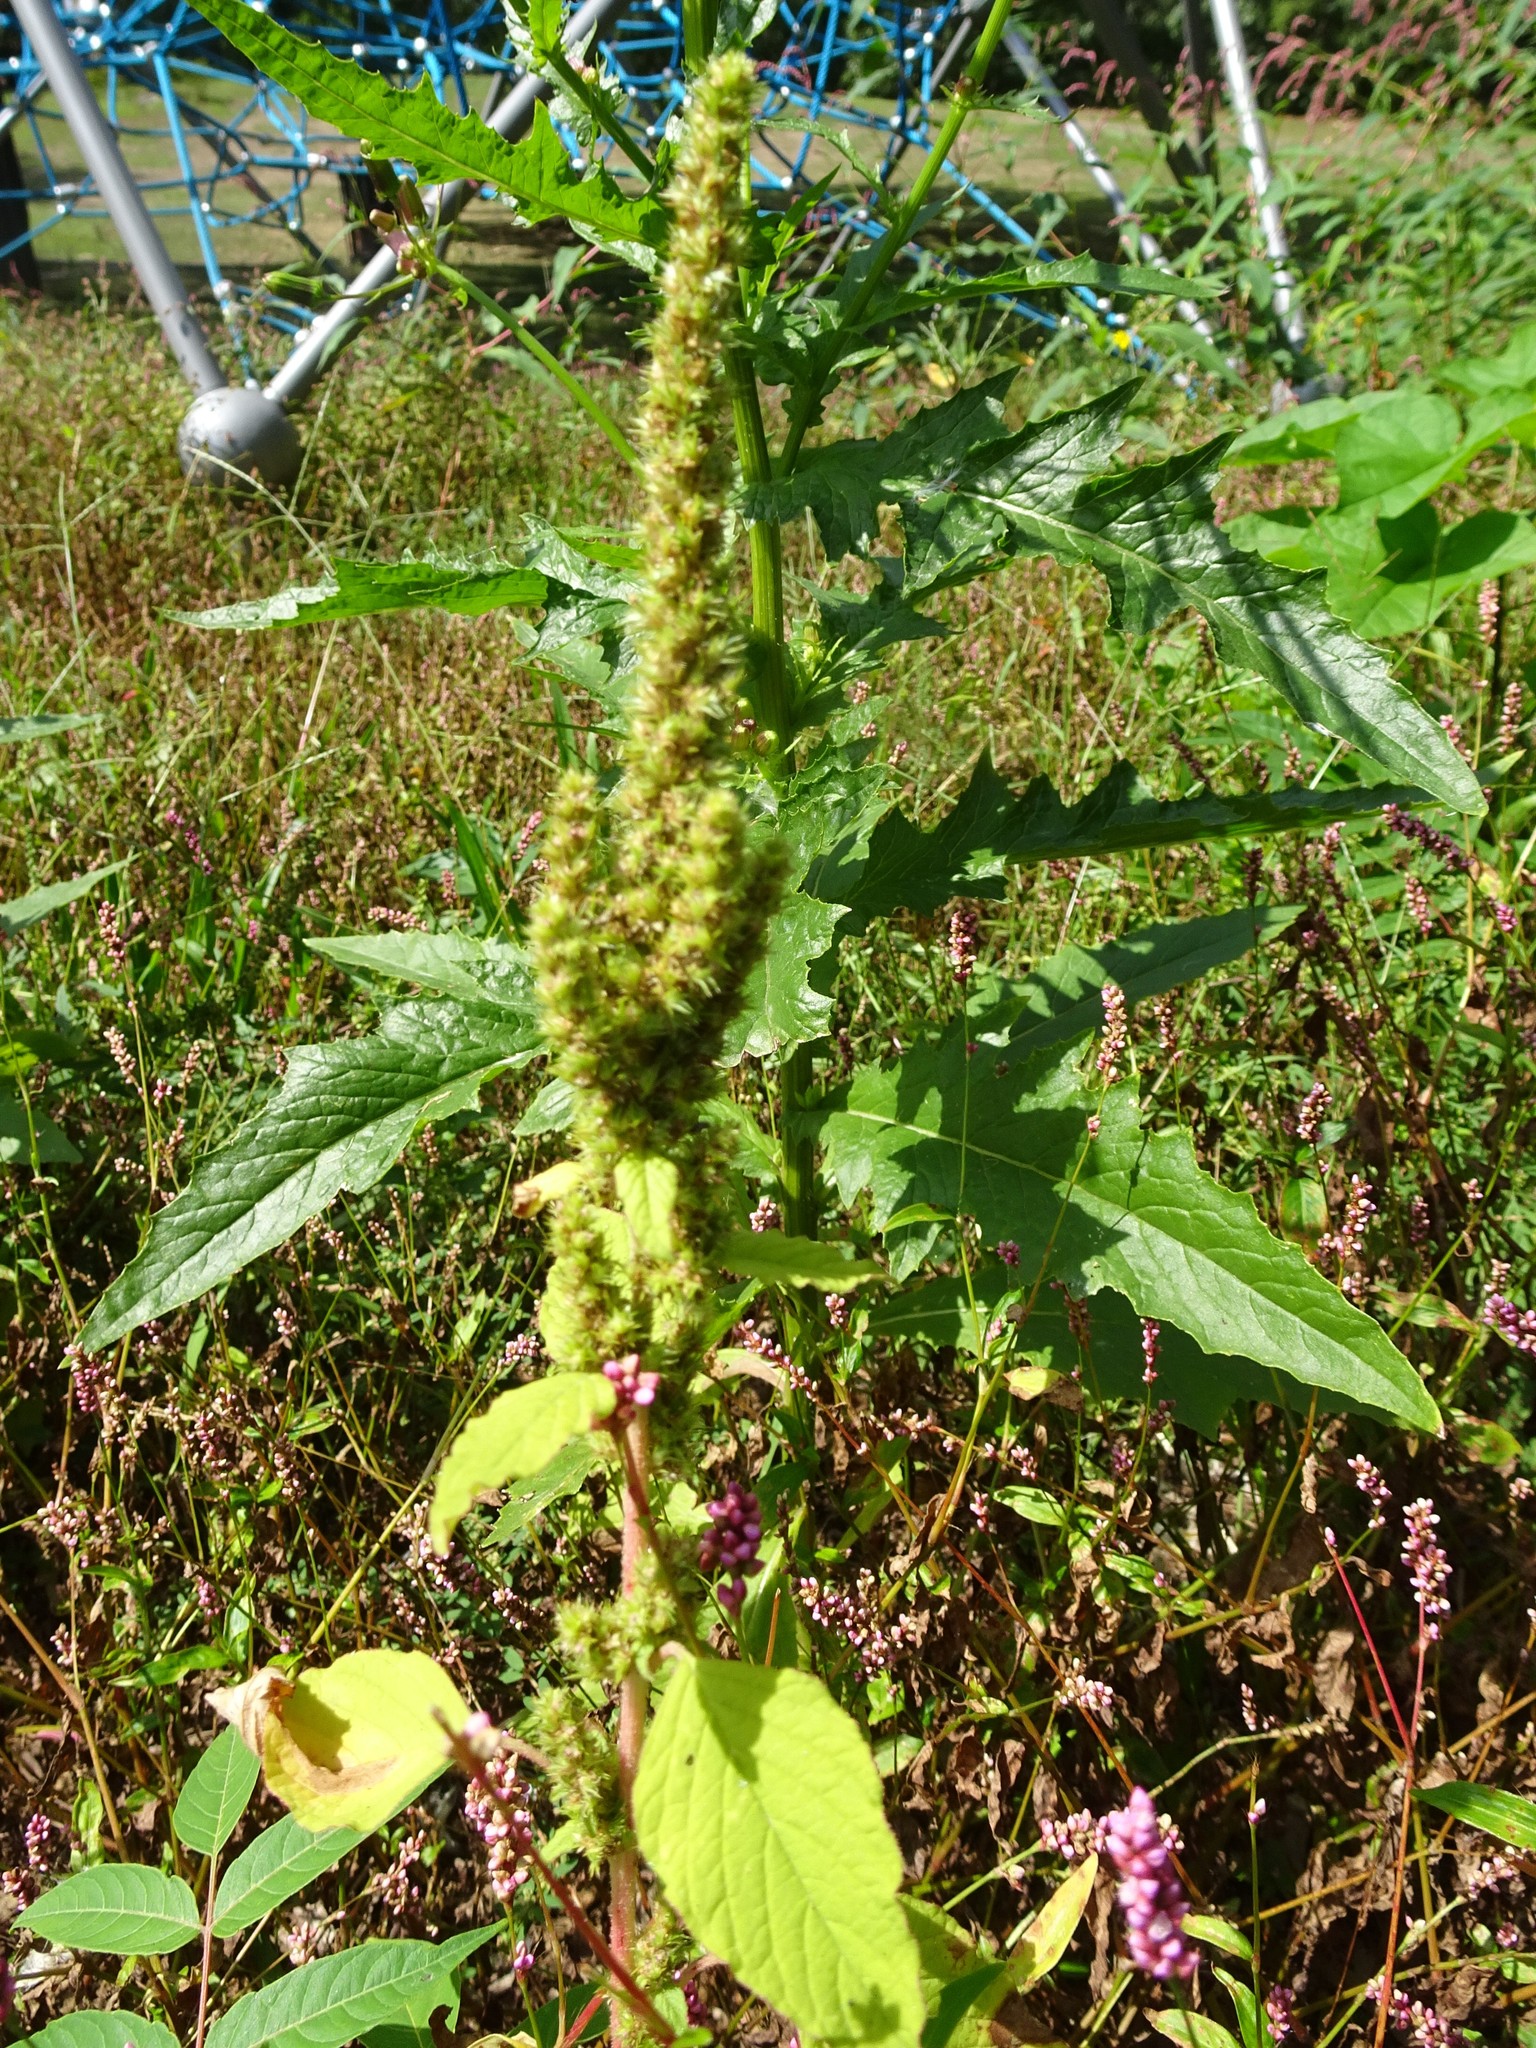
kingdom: Plantae
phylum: Tracheophyta
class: Magnoliopsida
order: Caryophyllales
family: Amaranthaceae
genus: Amaranthus
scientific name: Amaranthus retroflexus
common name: Redroot amaranth
